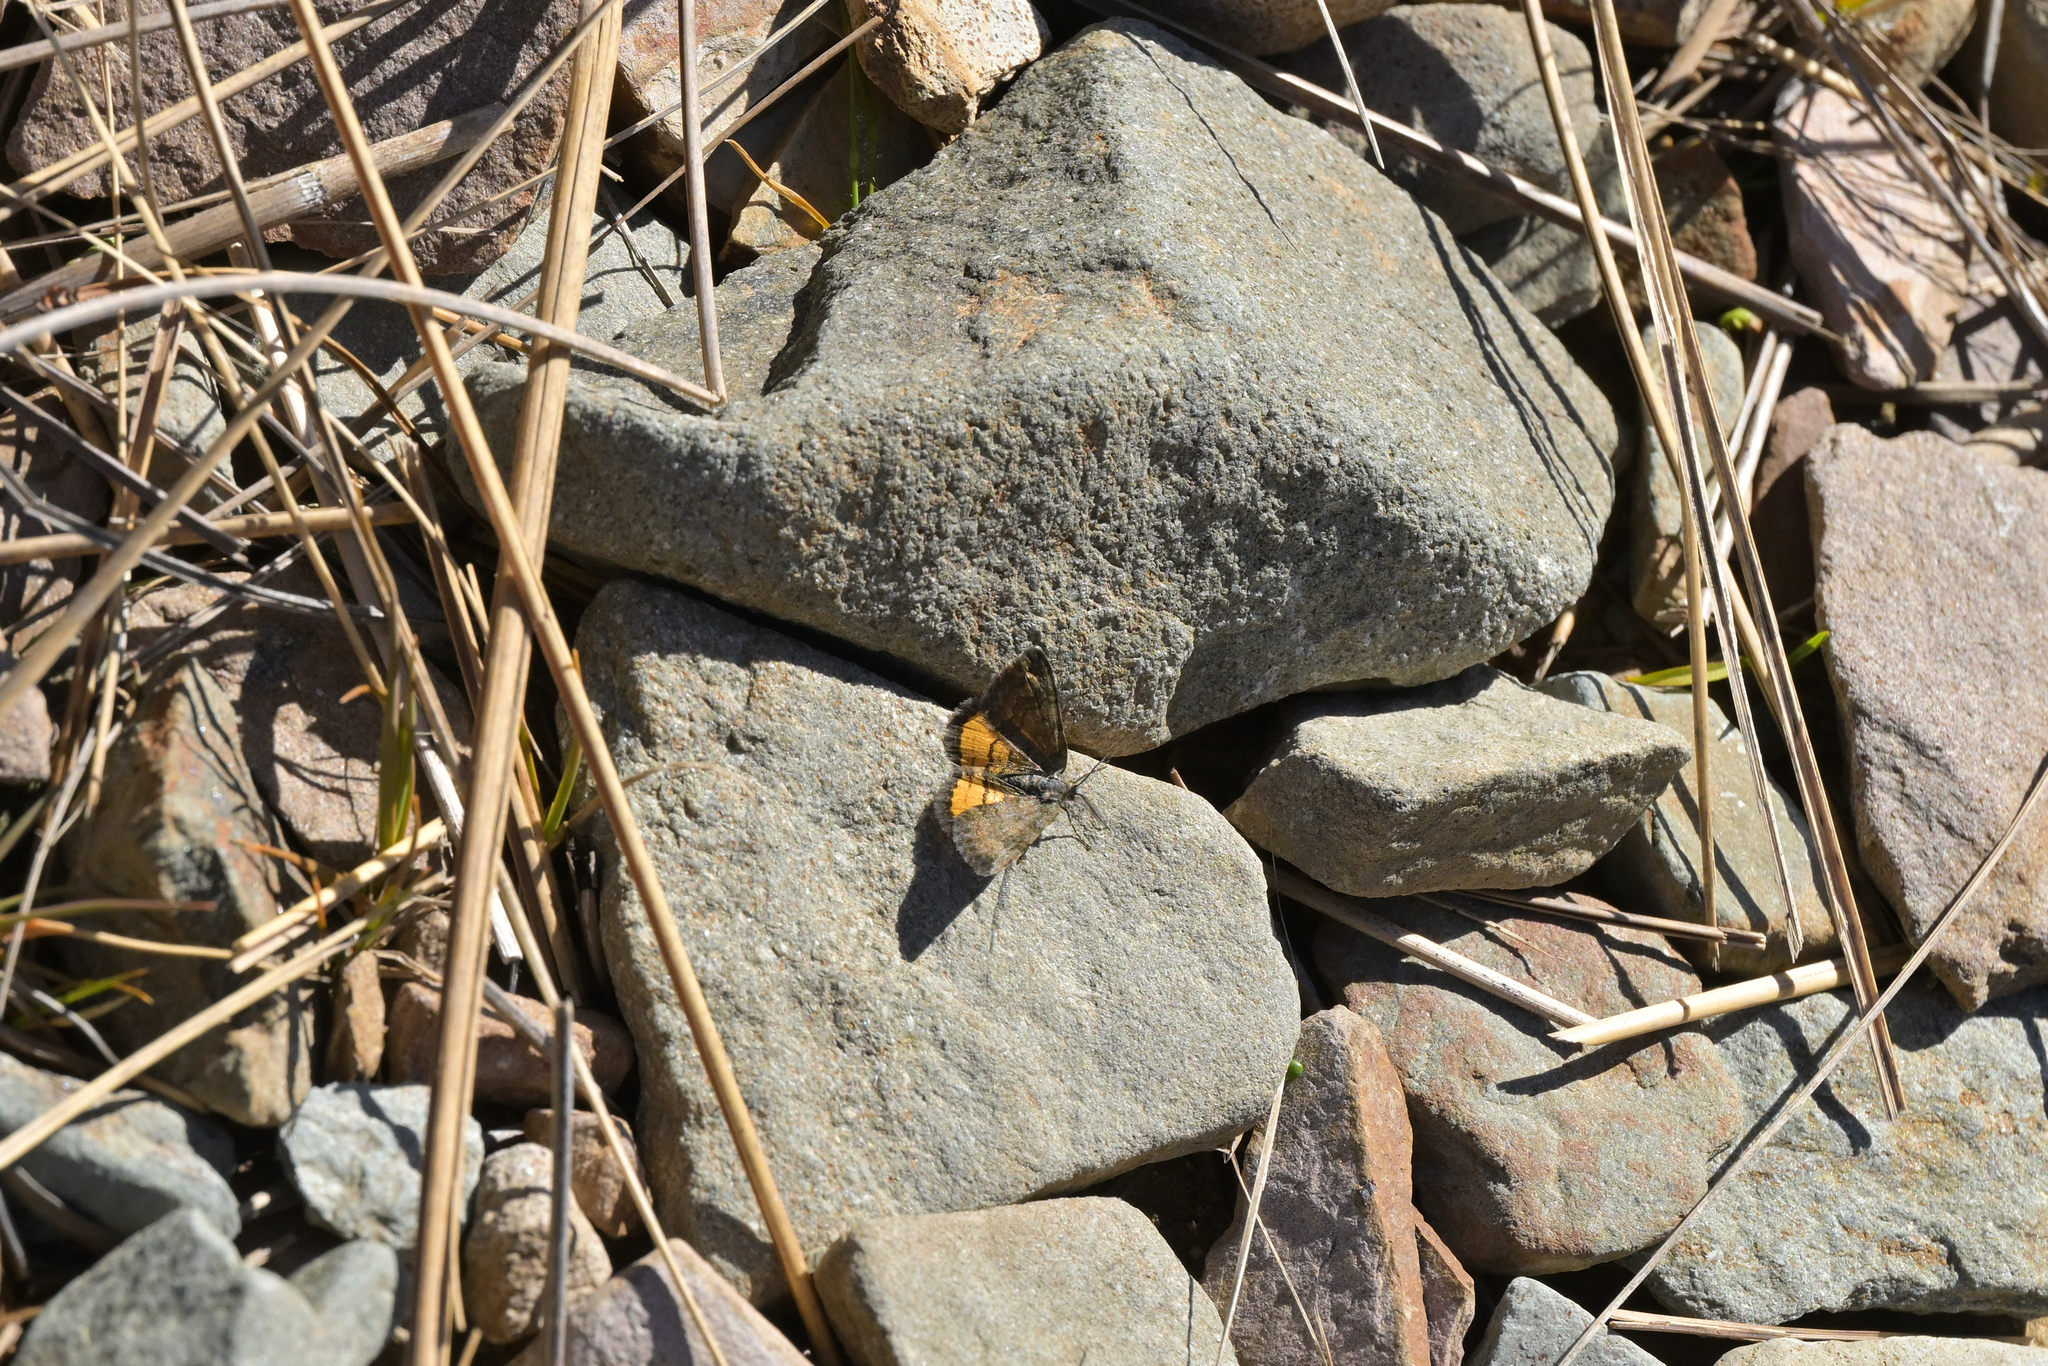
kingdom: Animalia
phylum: Arthropoda
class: Insecta
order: Lepidoptera
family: Geometridae
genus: Paranotoreas
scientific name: Paranotoreas brephosata
